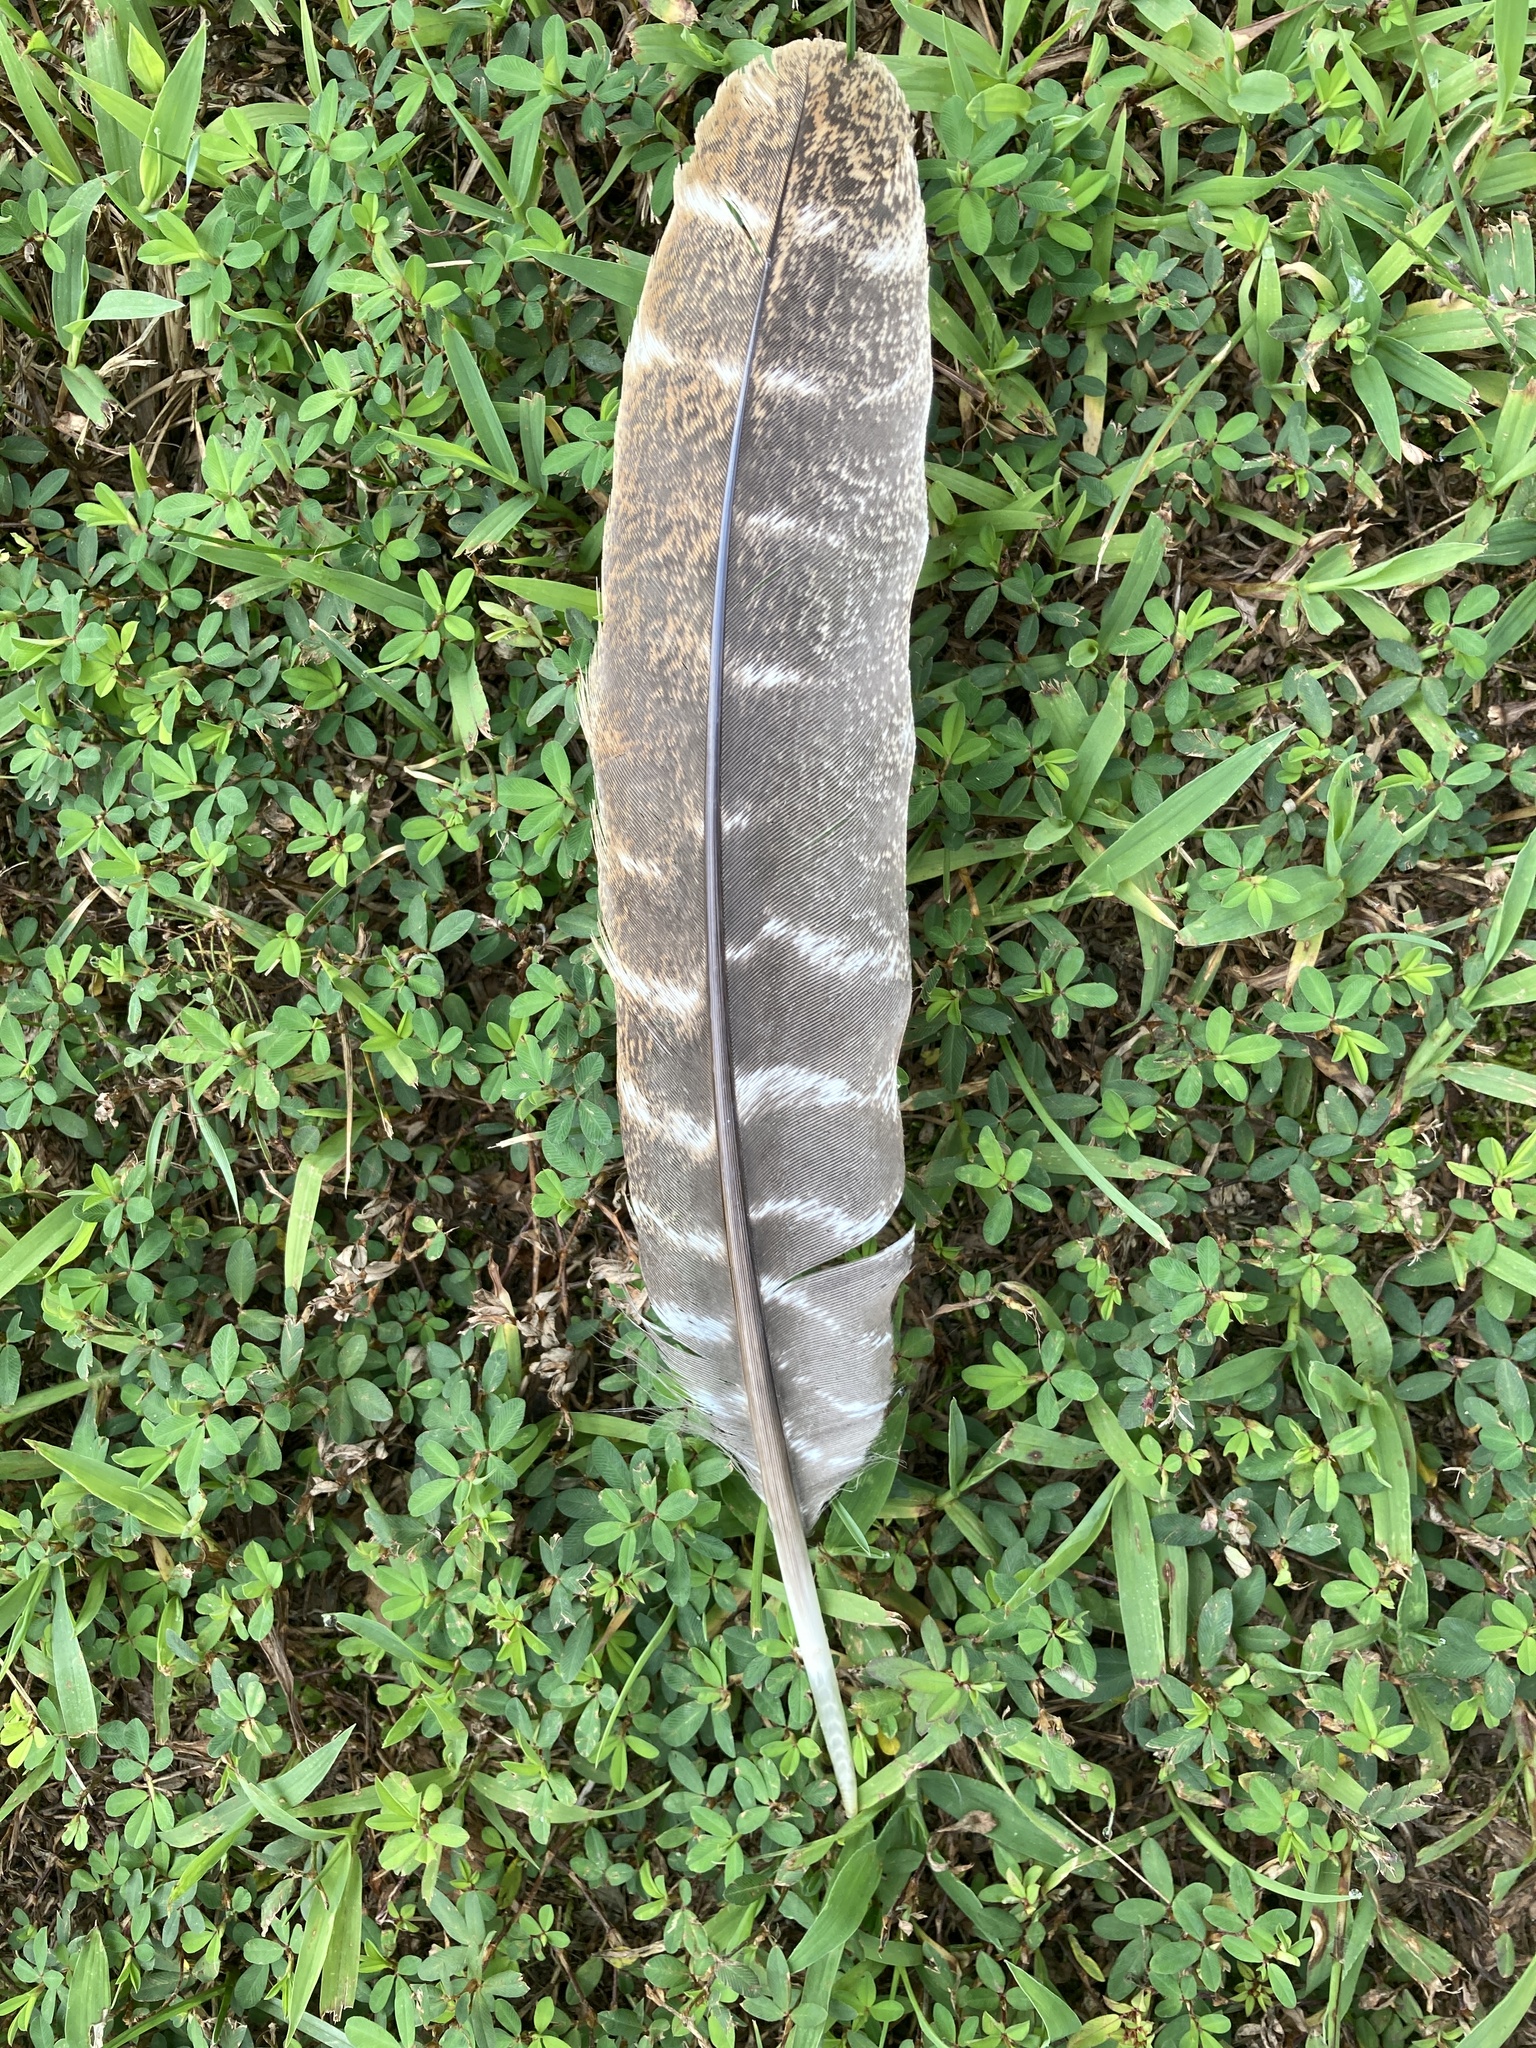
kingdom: Animalia
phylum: Chordata
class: Aves
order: Galliformes
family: Phasianidae
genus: Meleagris
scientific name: Meleagris gallopavo
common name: Wild turkey
